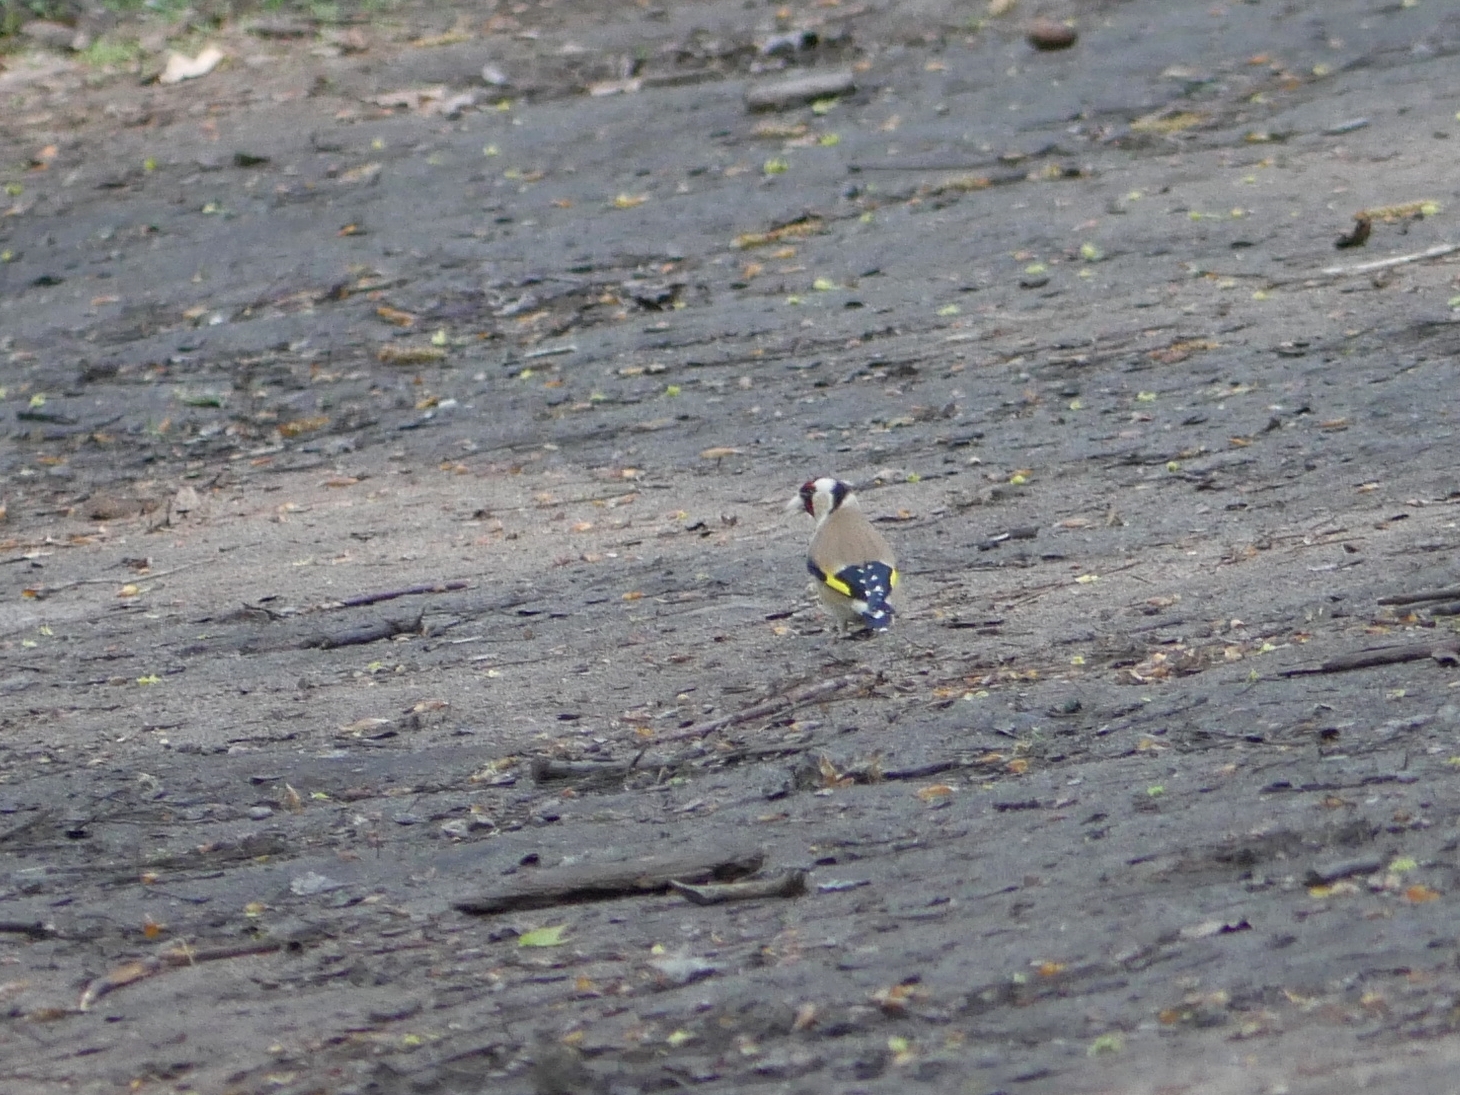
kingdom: Animalia
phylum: Chordata
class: Aves
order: Passeriformes
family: Fringillidae
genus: Carduelis
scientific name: Carduelis carduelis
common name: European goldfinch
